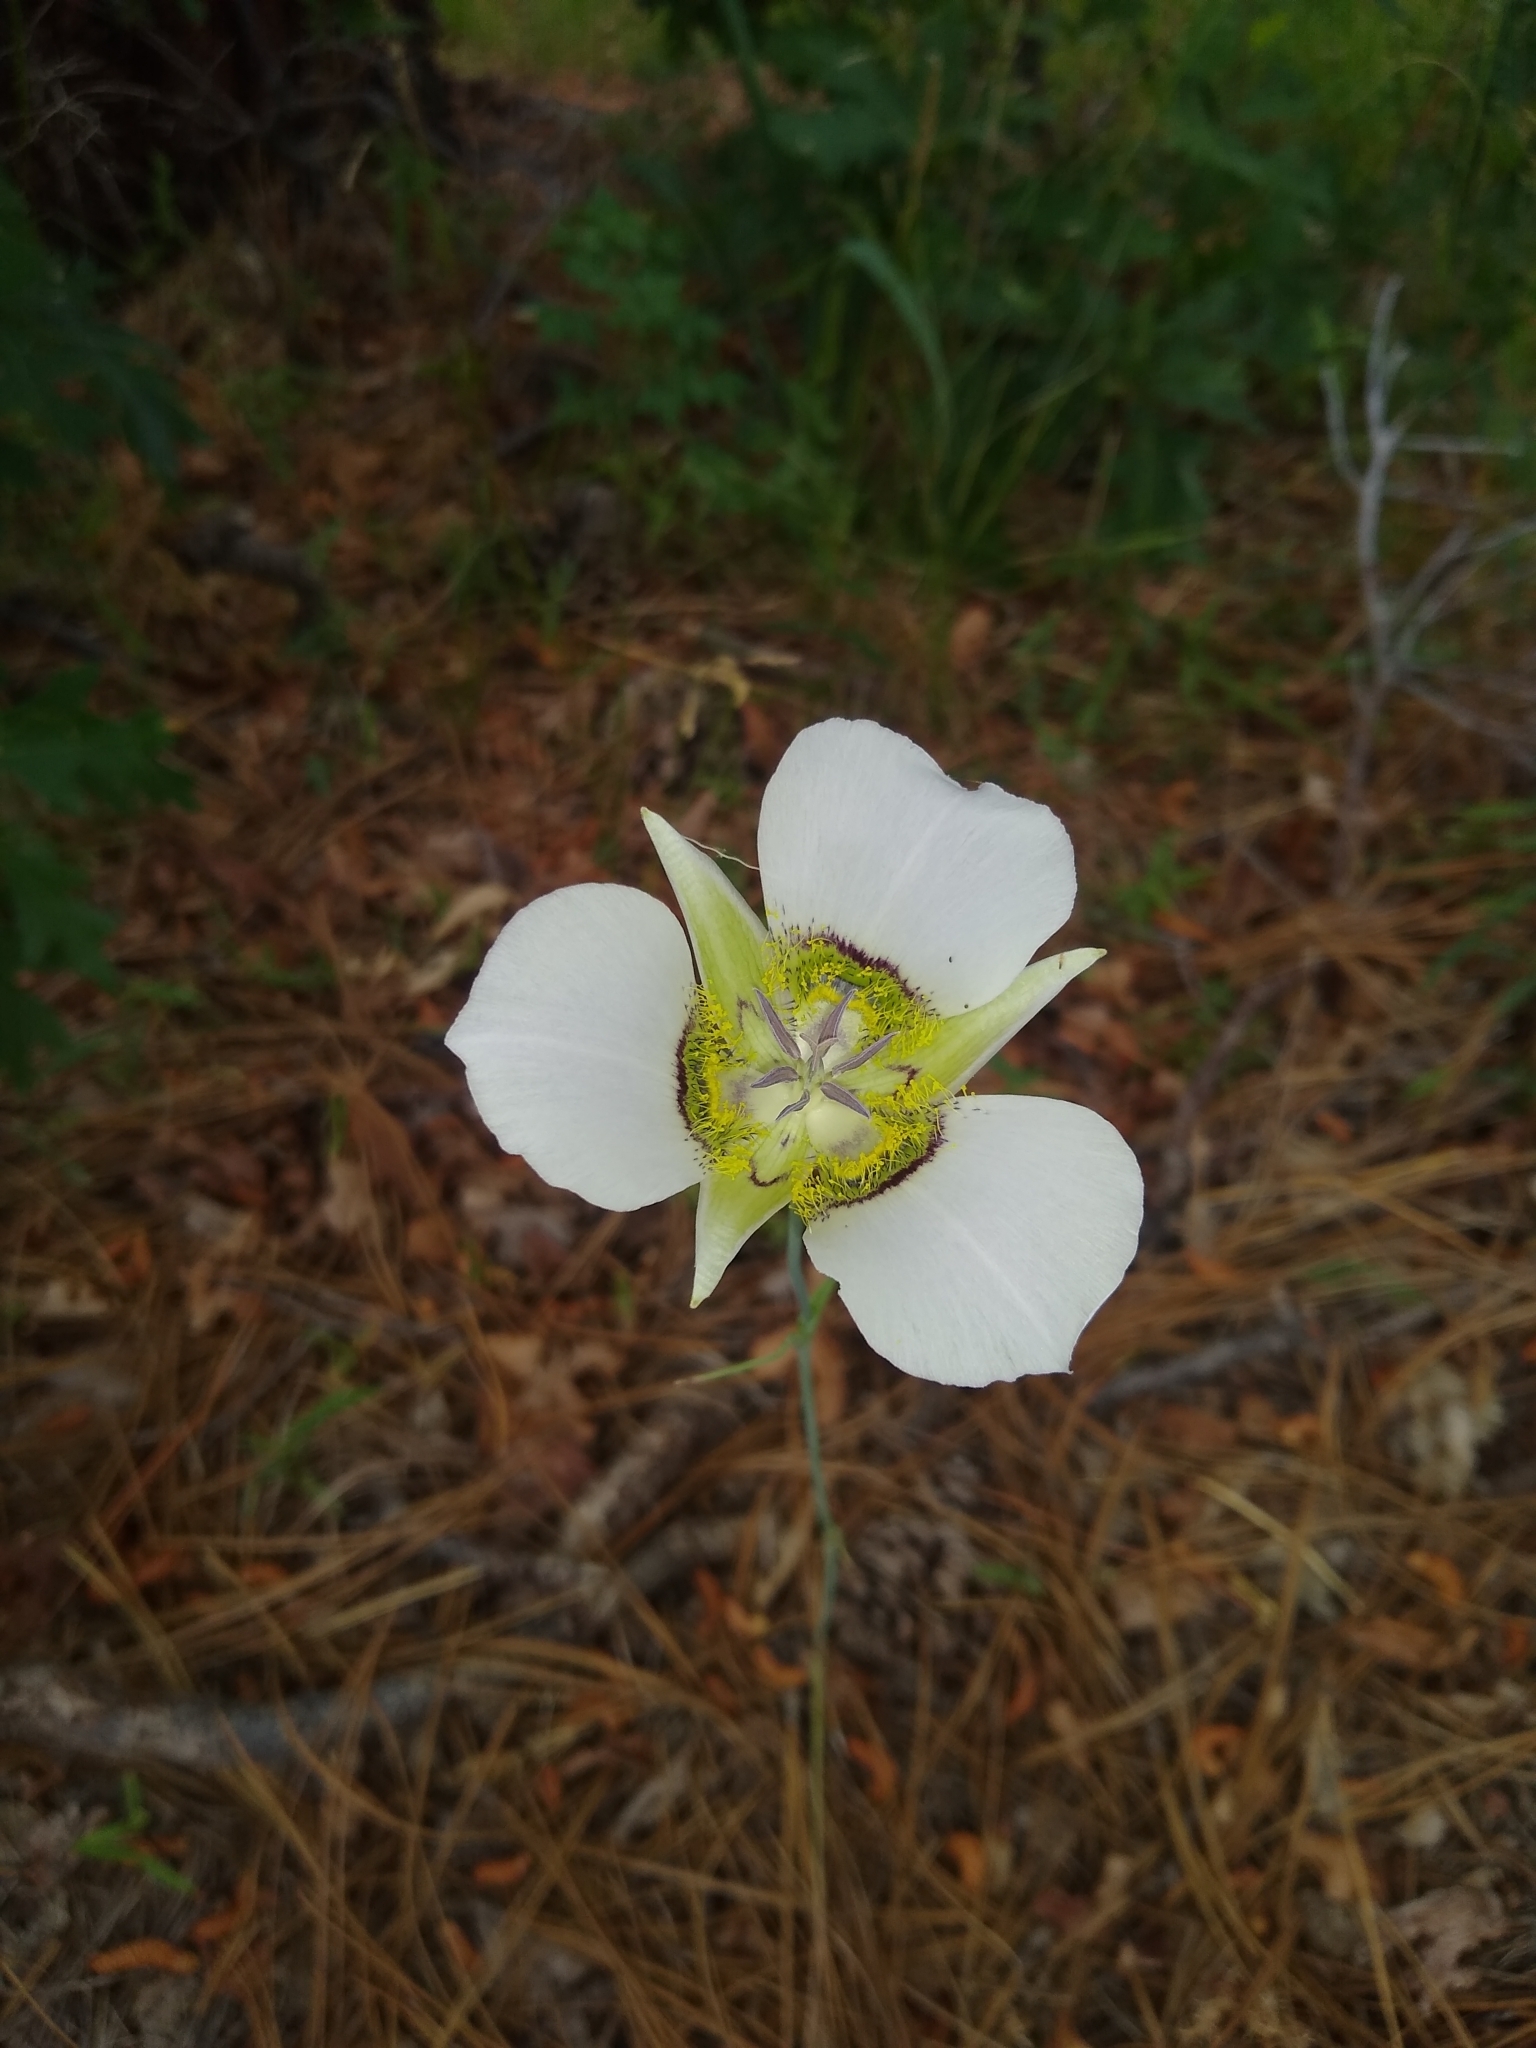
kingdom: Plantae
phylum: Tracheophyta
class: Liliopsida
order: Liliales
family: Liliaceae
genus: Calochortus
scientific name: Calochortus gunnisonii
